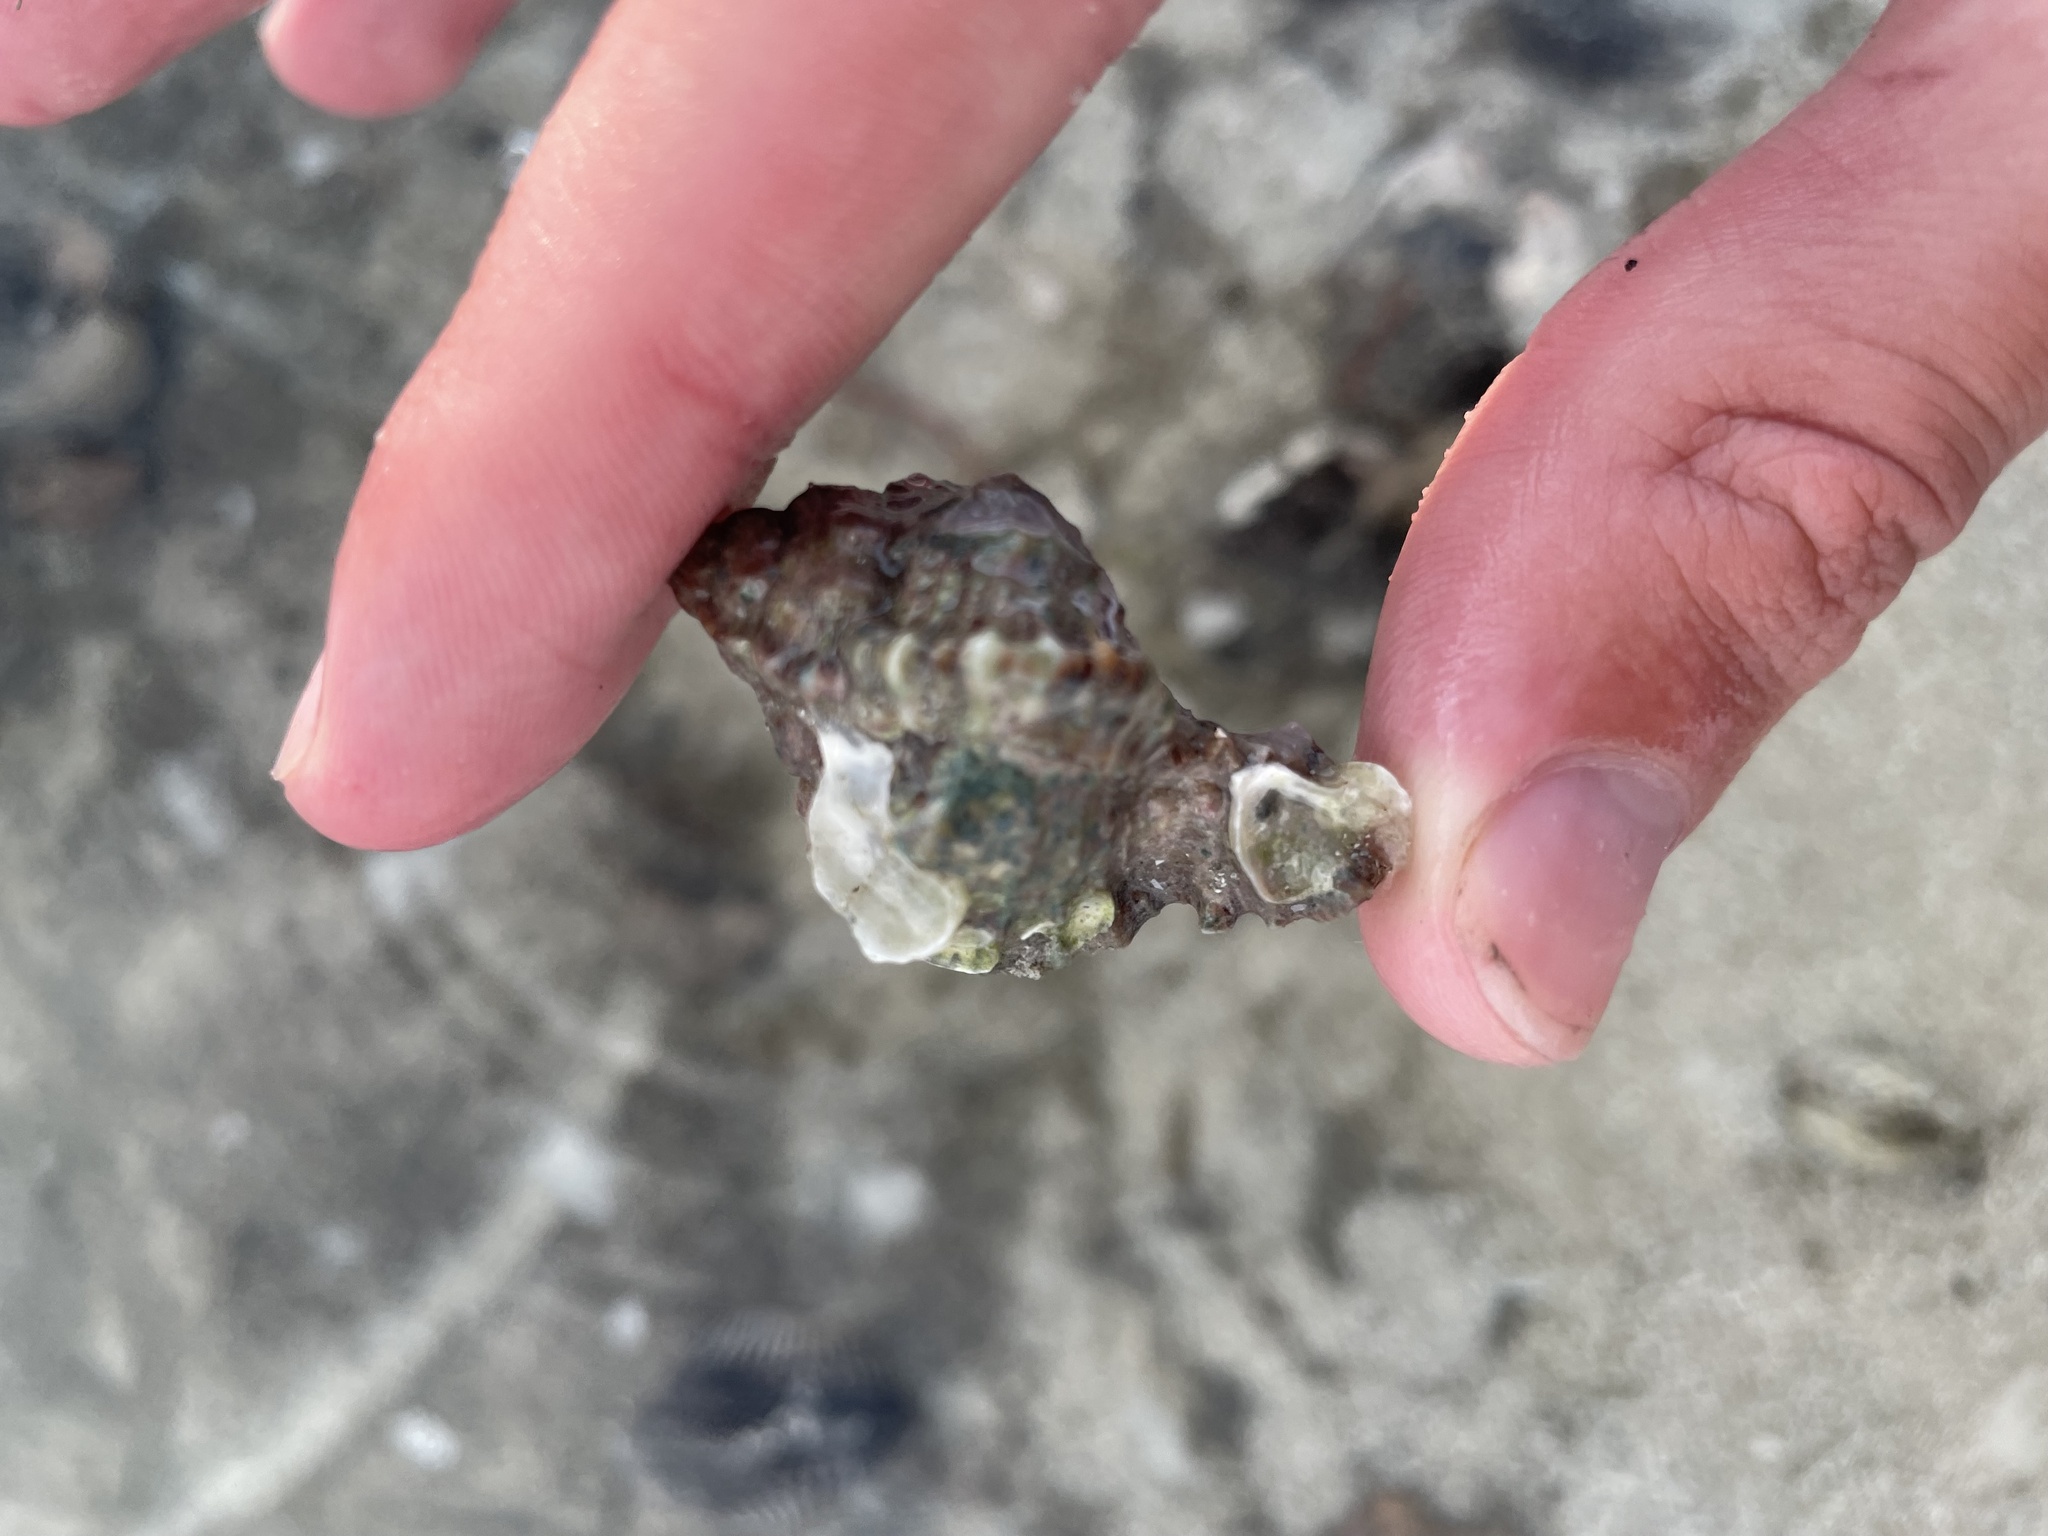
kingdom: Animalia
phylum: Mollusca
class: Gastropoda
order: Neogastropoda
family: Muricidae
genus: Phyllonotus
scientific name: Phyllonotus pomum
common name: Apple murex
